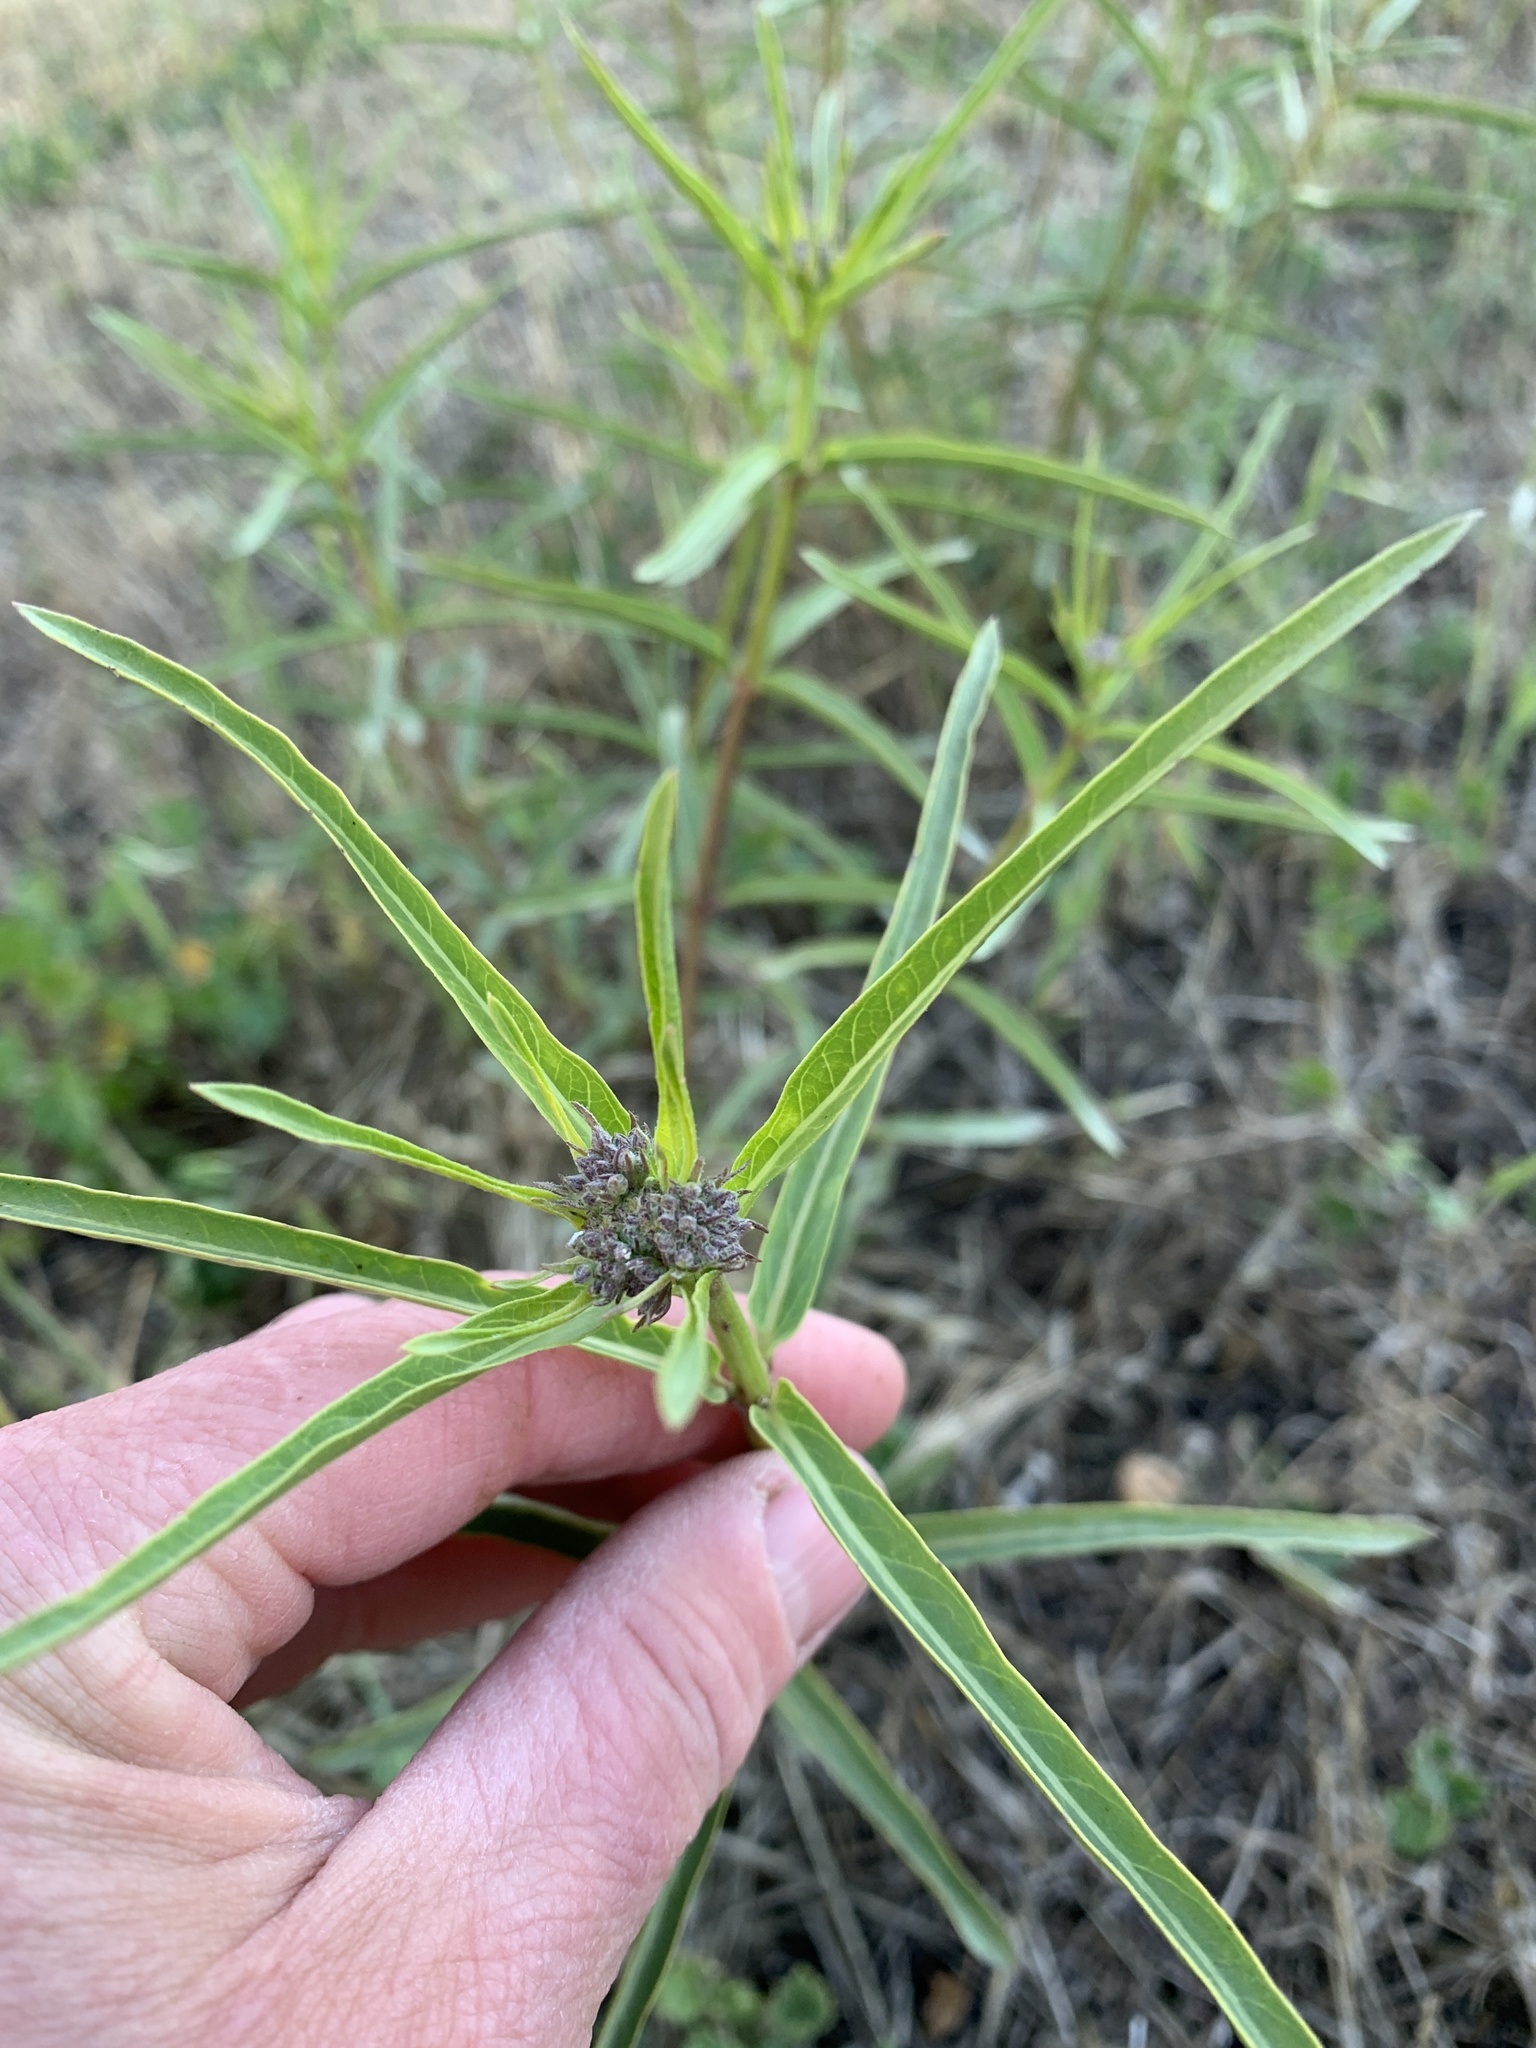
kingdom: Plantae
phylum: Tracheophyta
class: Magnoliopsida
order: Gentianales
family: Apocynaceae
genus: Asclepias
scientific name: Asclepias fascicularis
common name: Mexican milkweed
